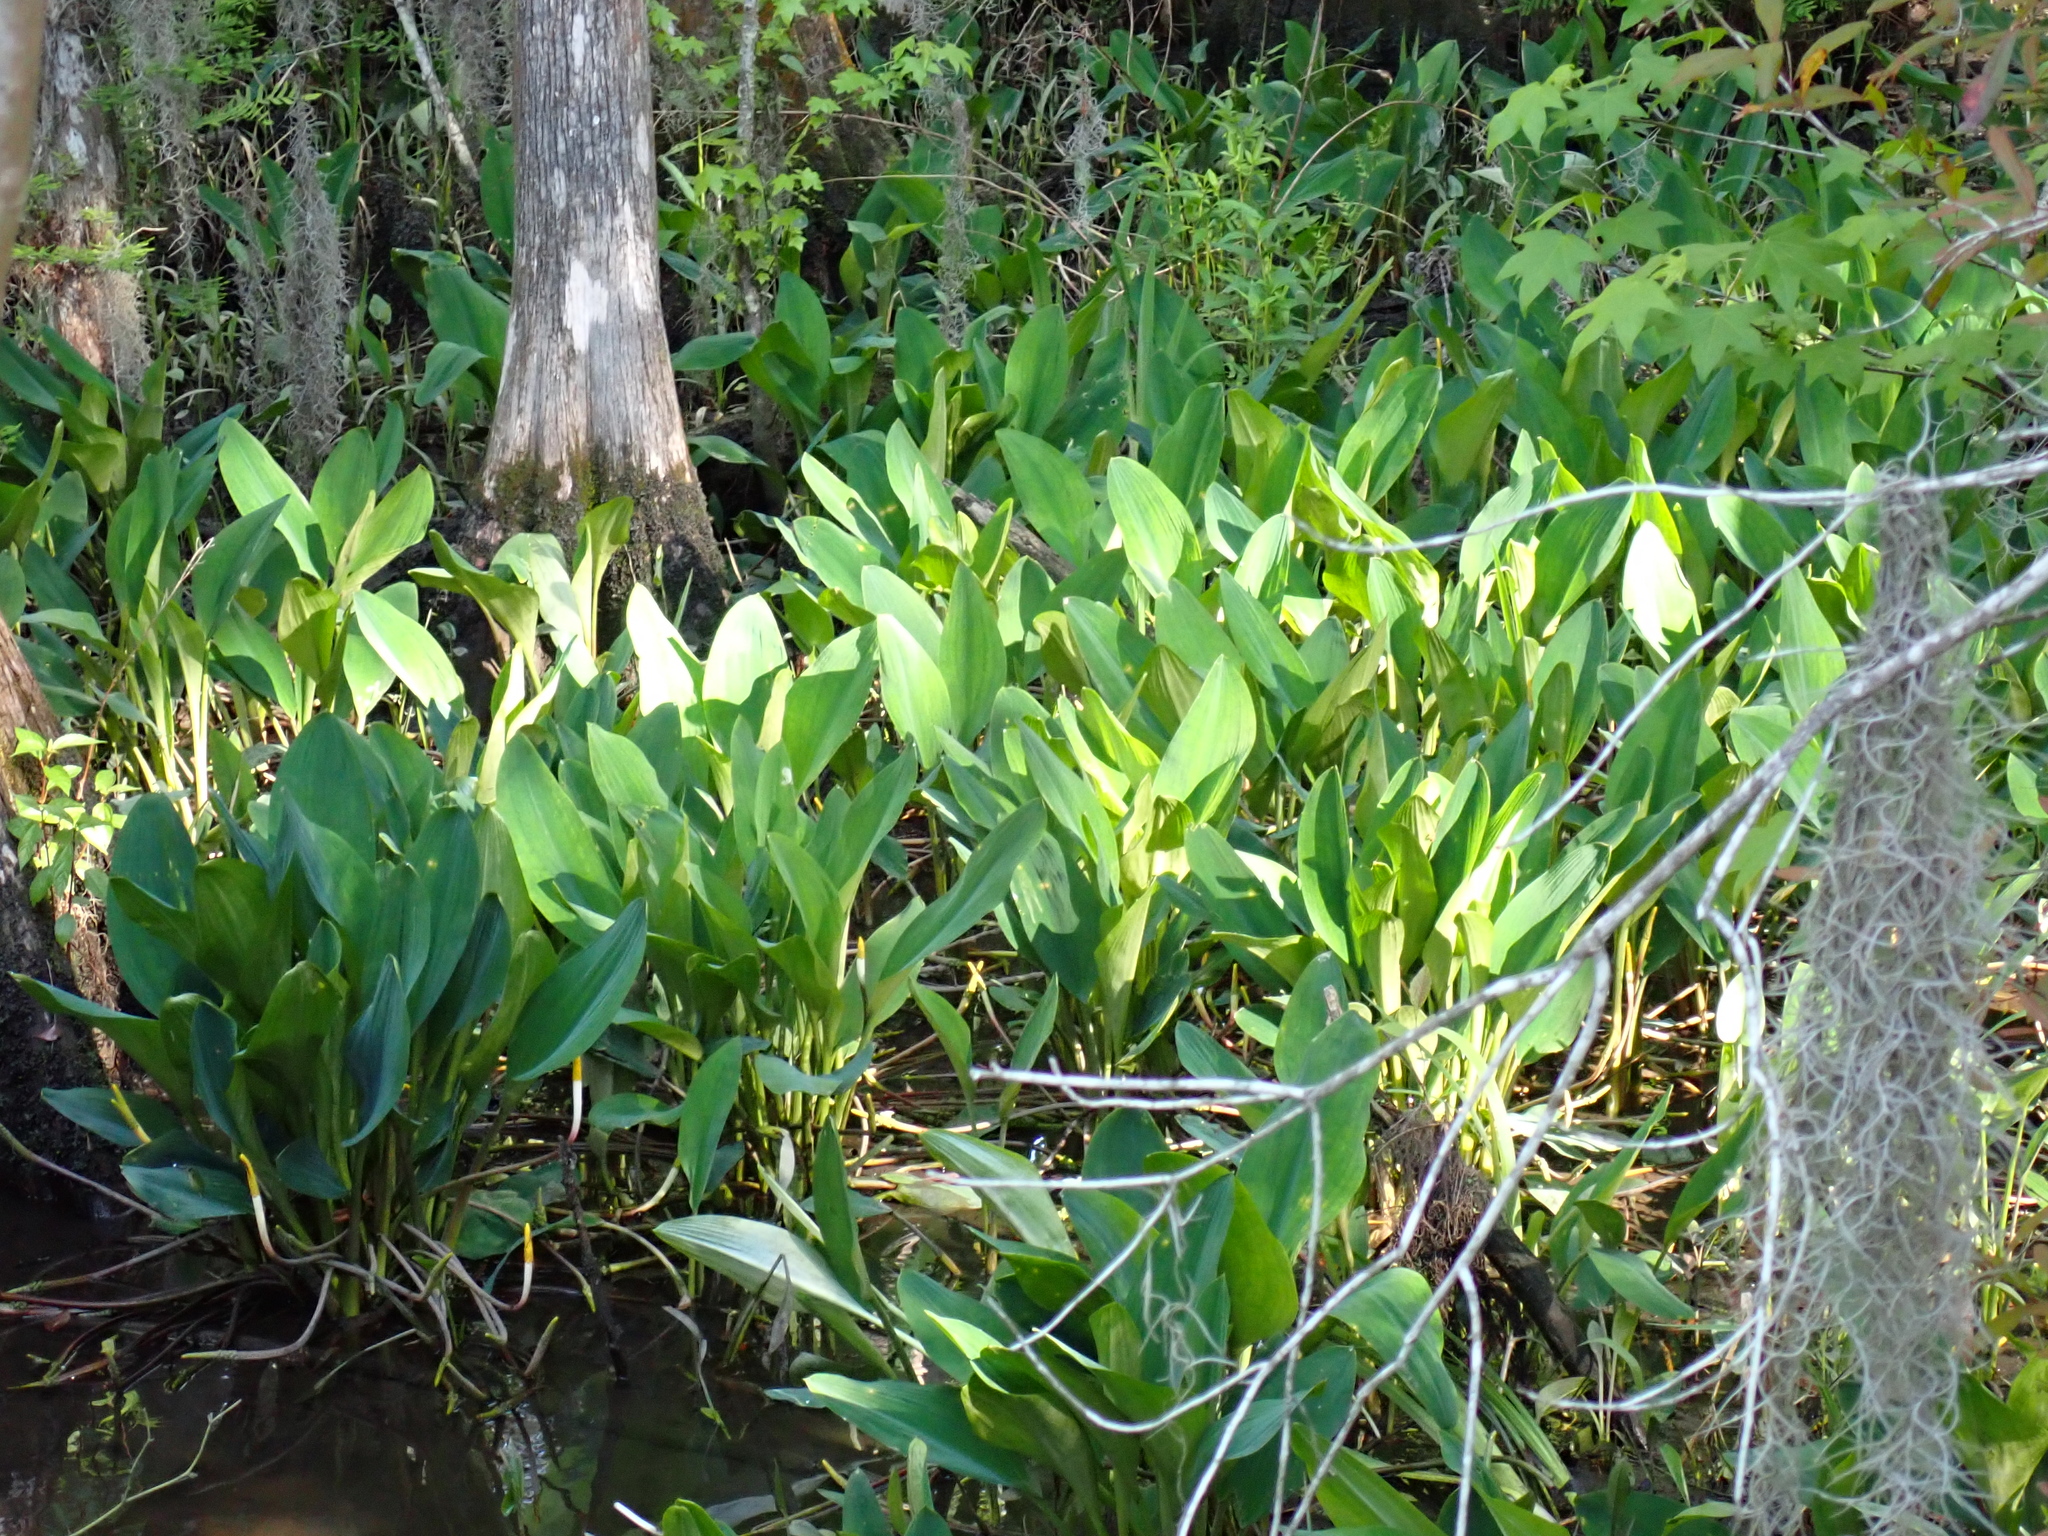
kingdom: Plantae
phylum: Tracheophyta
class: Liliopsida
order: Alismatales
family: Araceae
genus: Orontium
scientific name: Orontium aquaticum
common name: Golden-club
